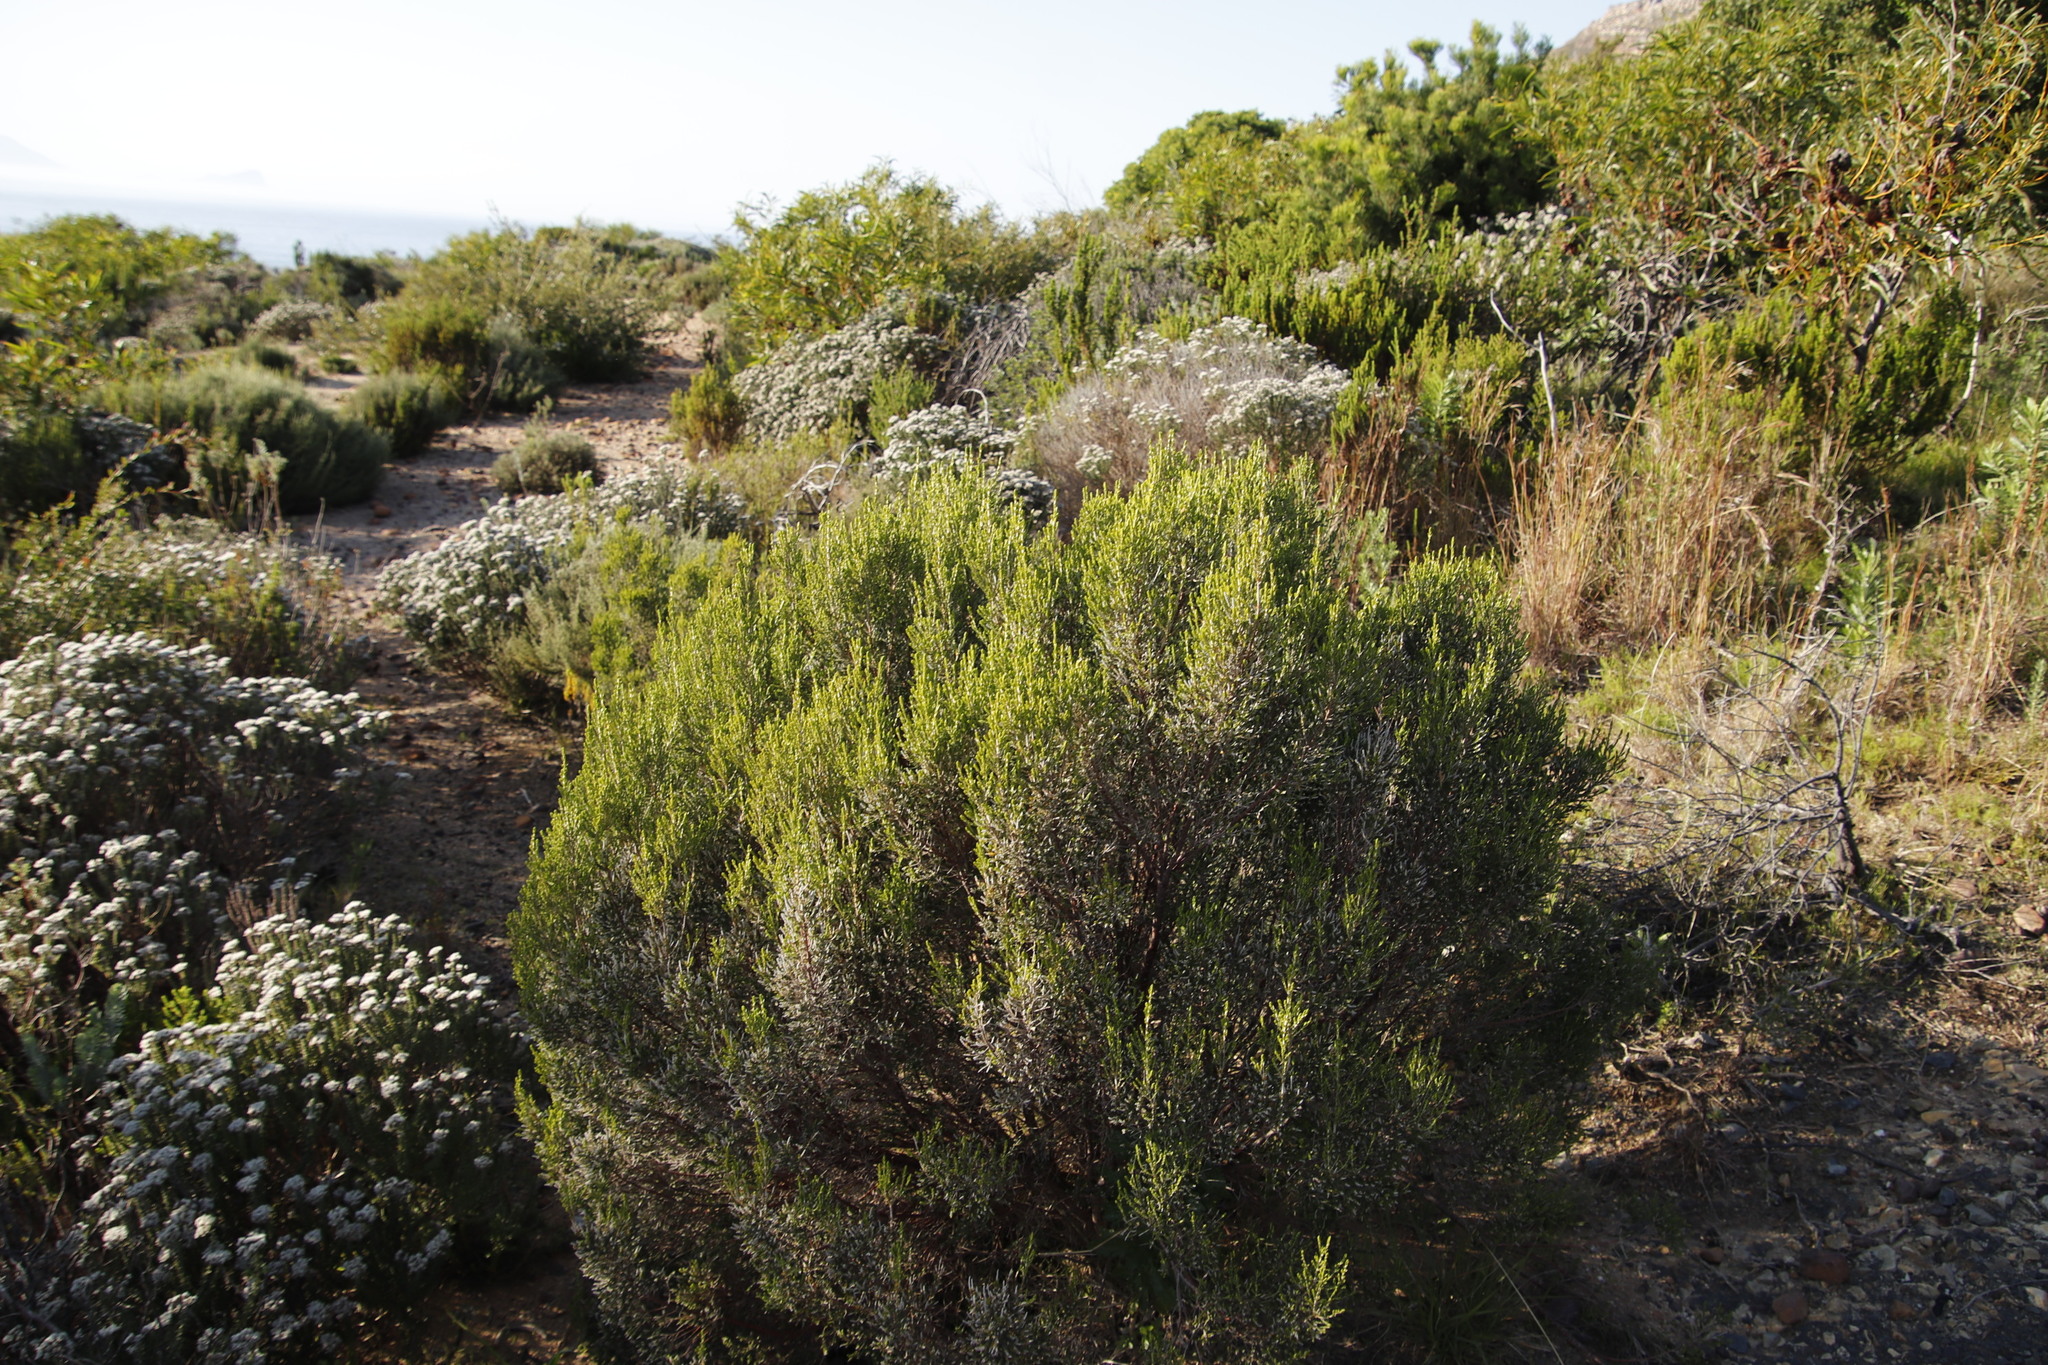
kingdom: Plantae
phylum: Tracheophyta
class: Magnoliopsida
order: Malvales
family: Thymelaeaceae
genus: Passerina
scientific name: Passerina corymbosa
